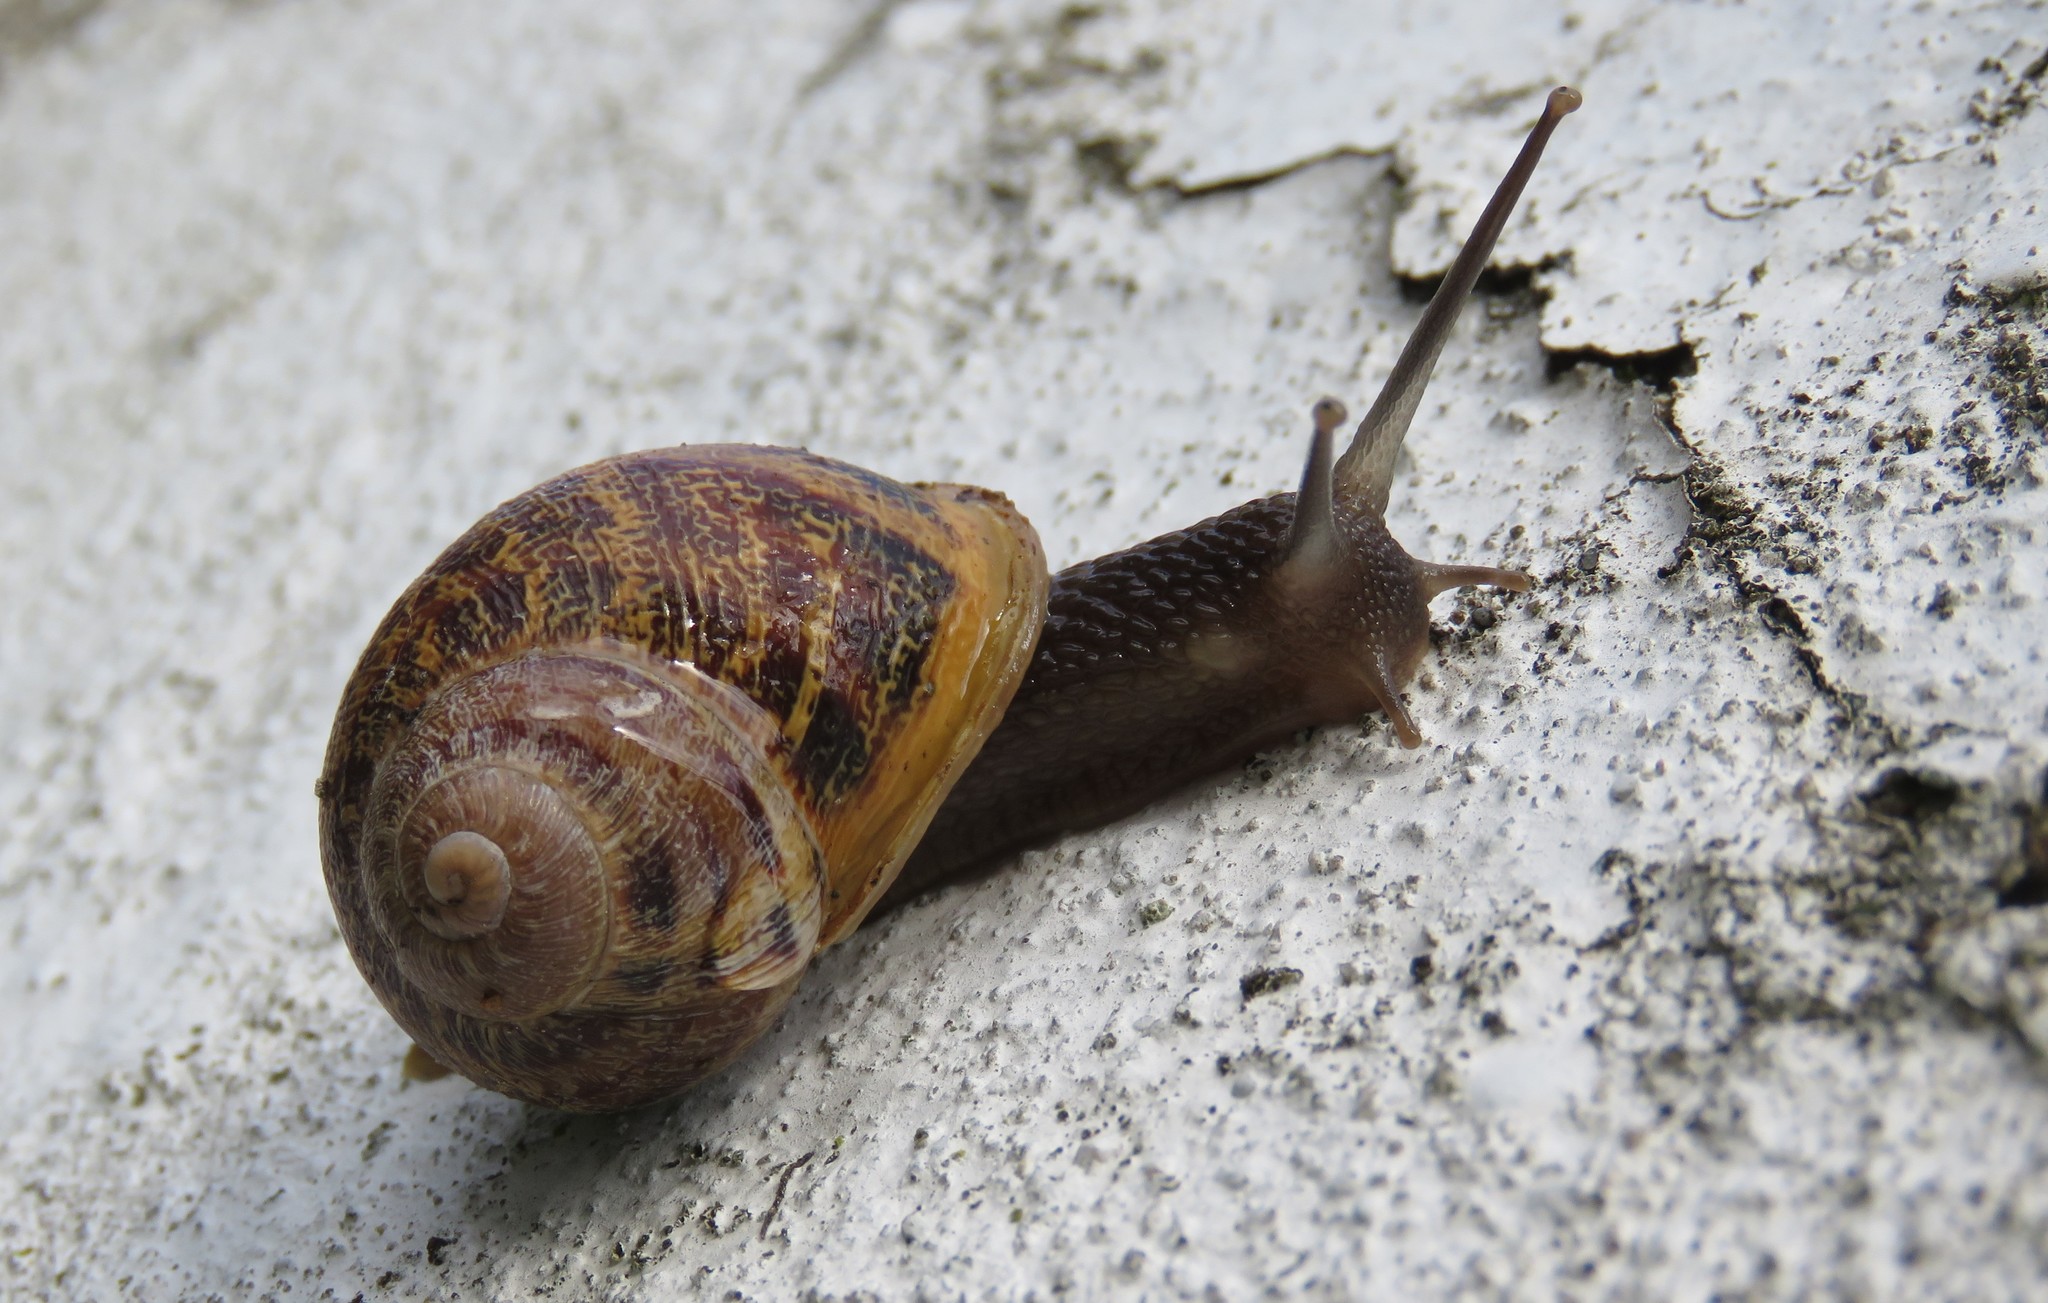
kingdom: Animalia
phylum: Mollusca
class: Gastropoda
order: Stylommatophora
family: Helicidae
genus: Cornu
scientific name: Cornu aspersum
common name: Brown garden snail
